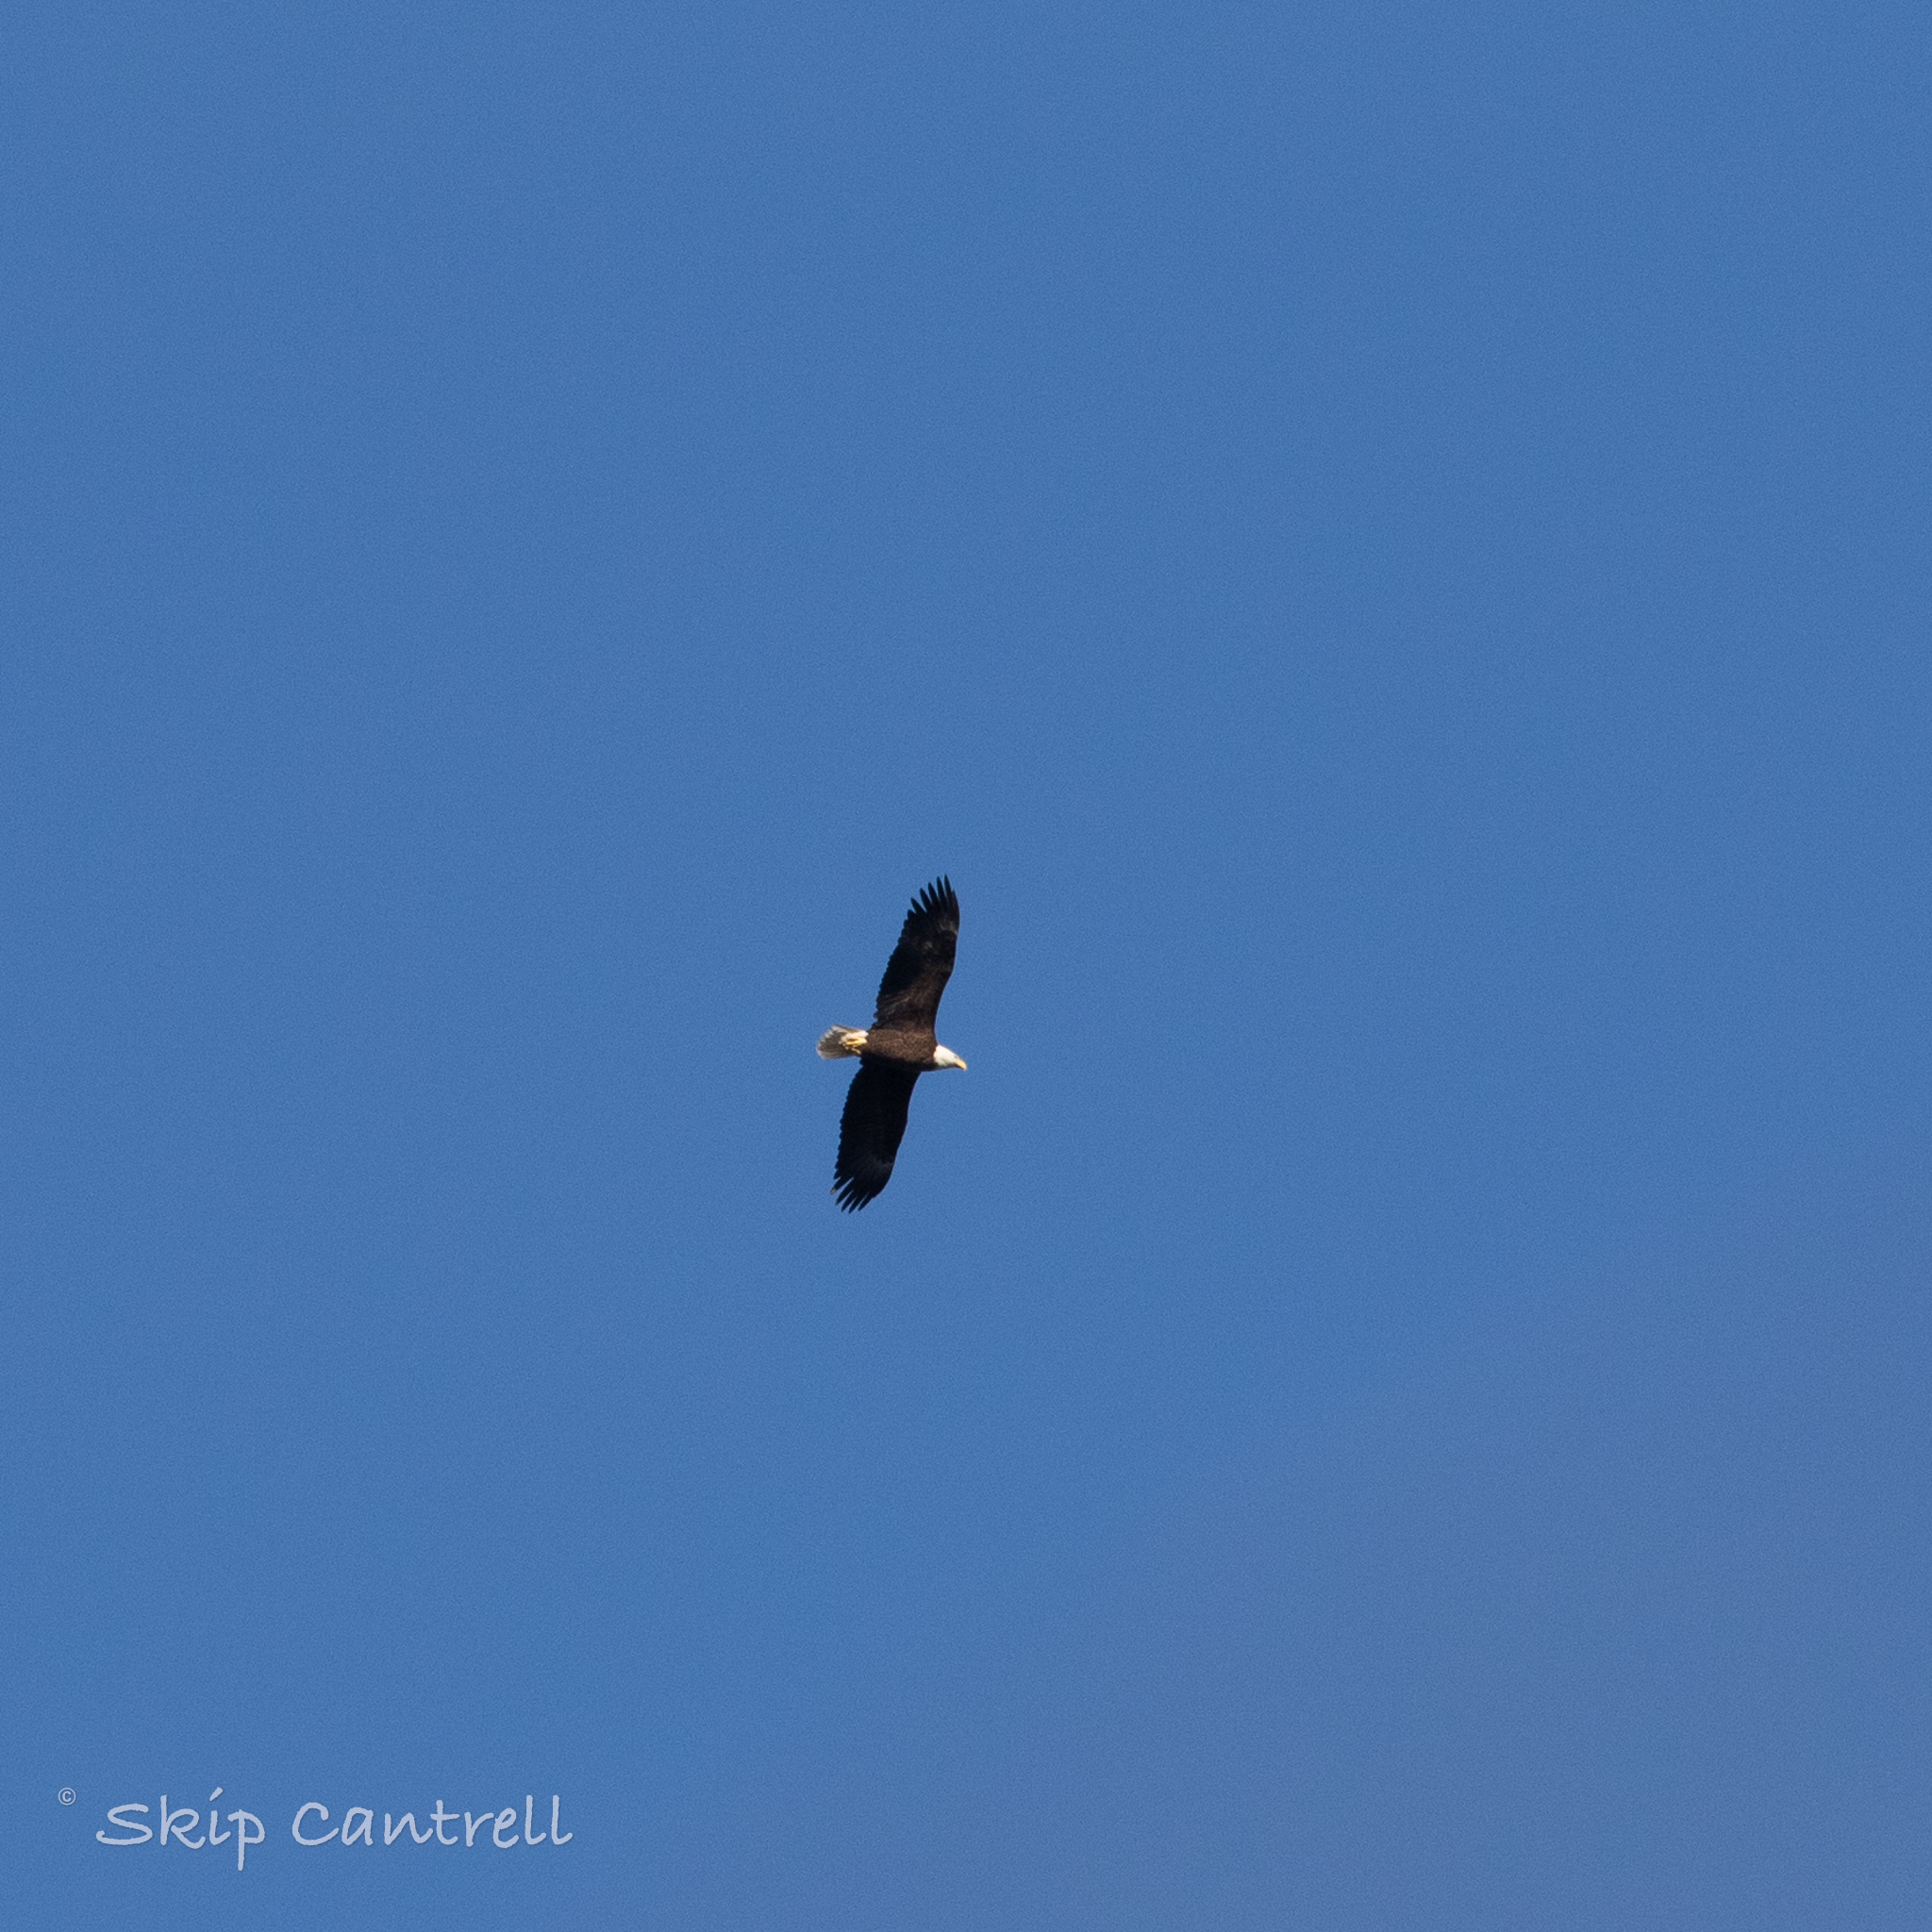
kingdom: Animalia
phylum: Chordata
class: Aves
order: Accipitriformes
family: Accipitridae
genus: Haliaeetus
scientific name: Haliaeetus leucocephalus
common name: Bald eagle
